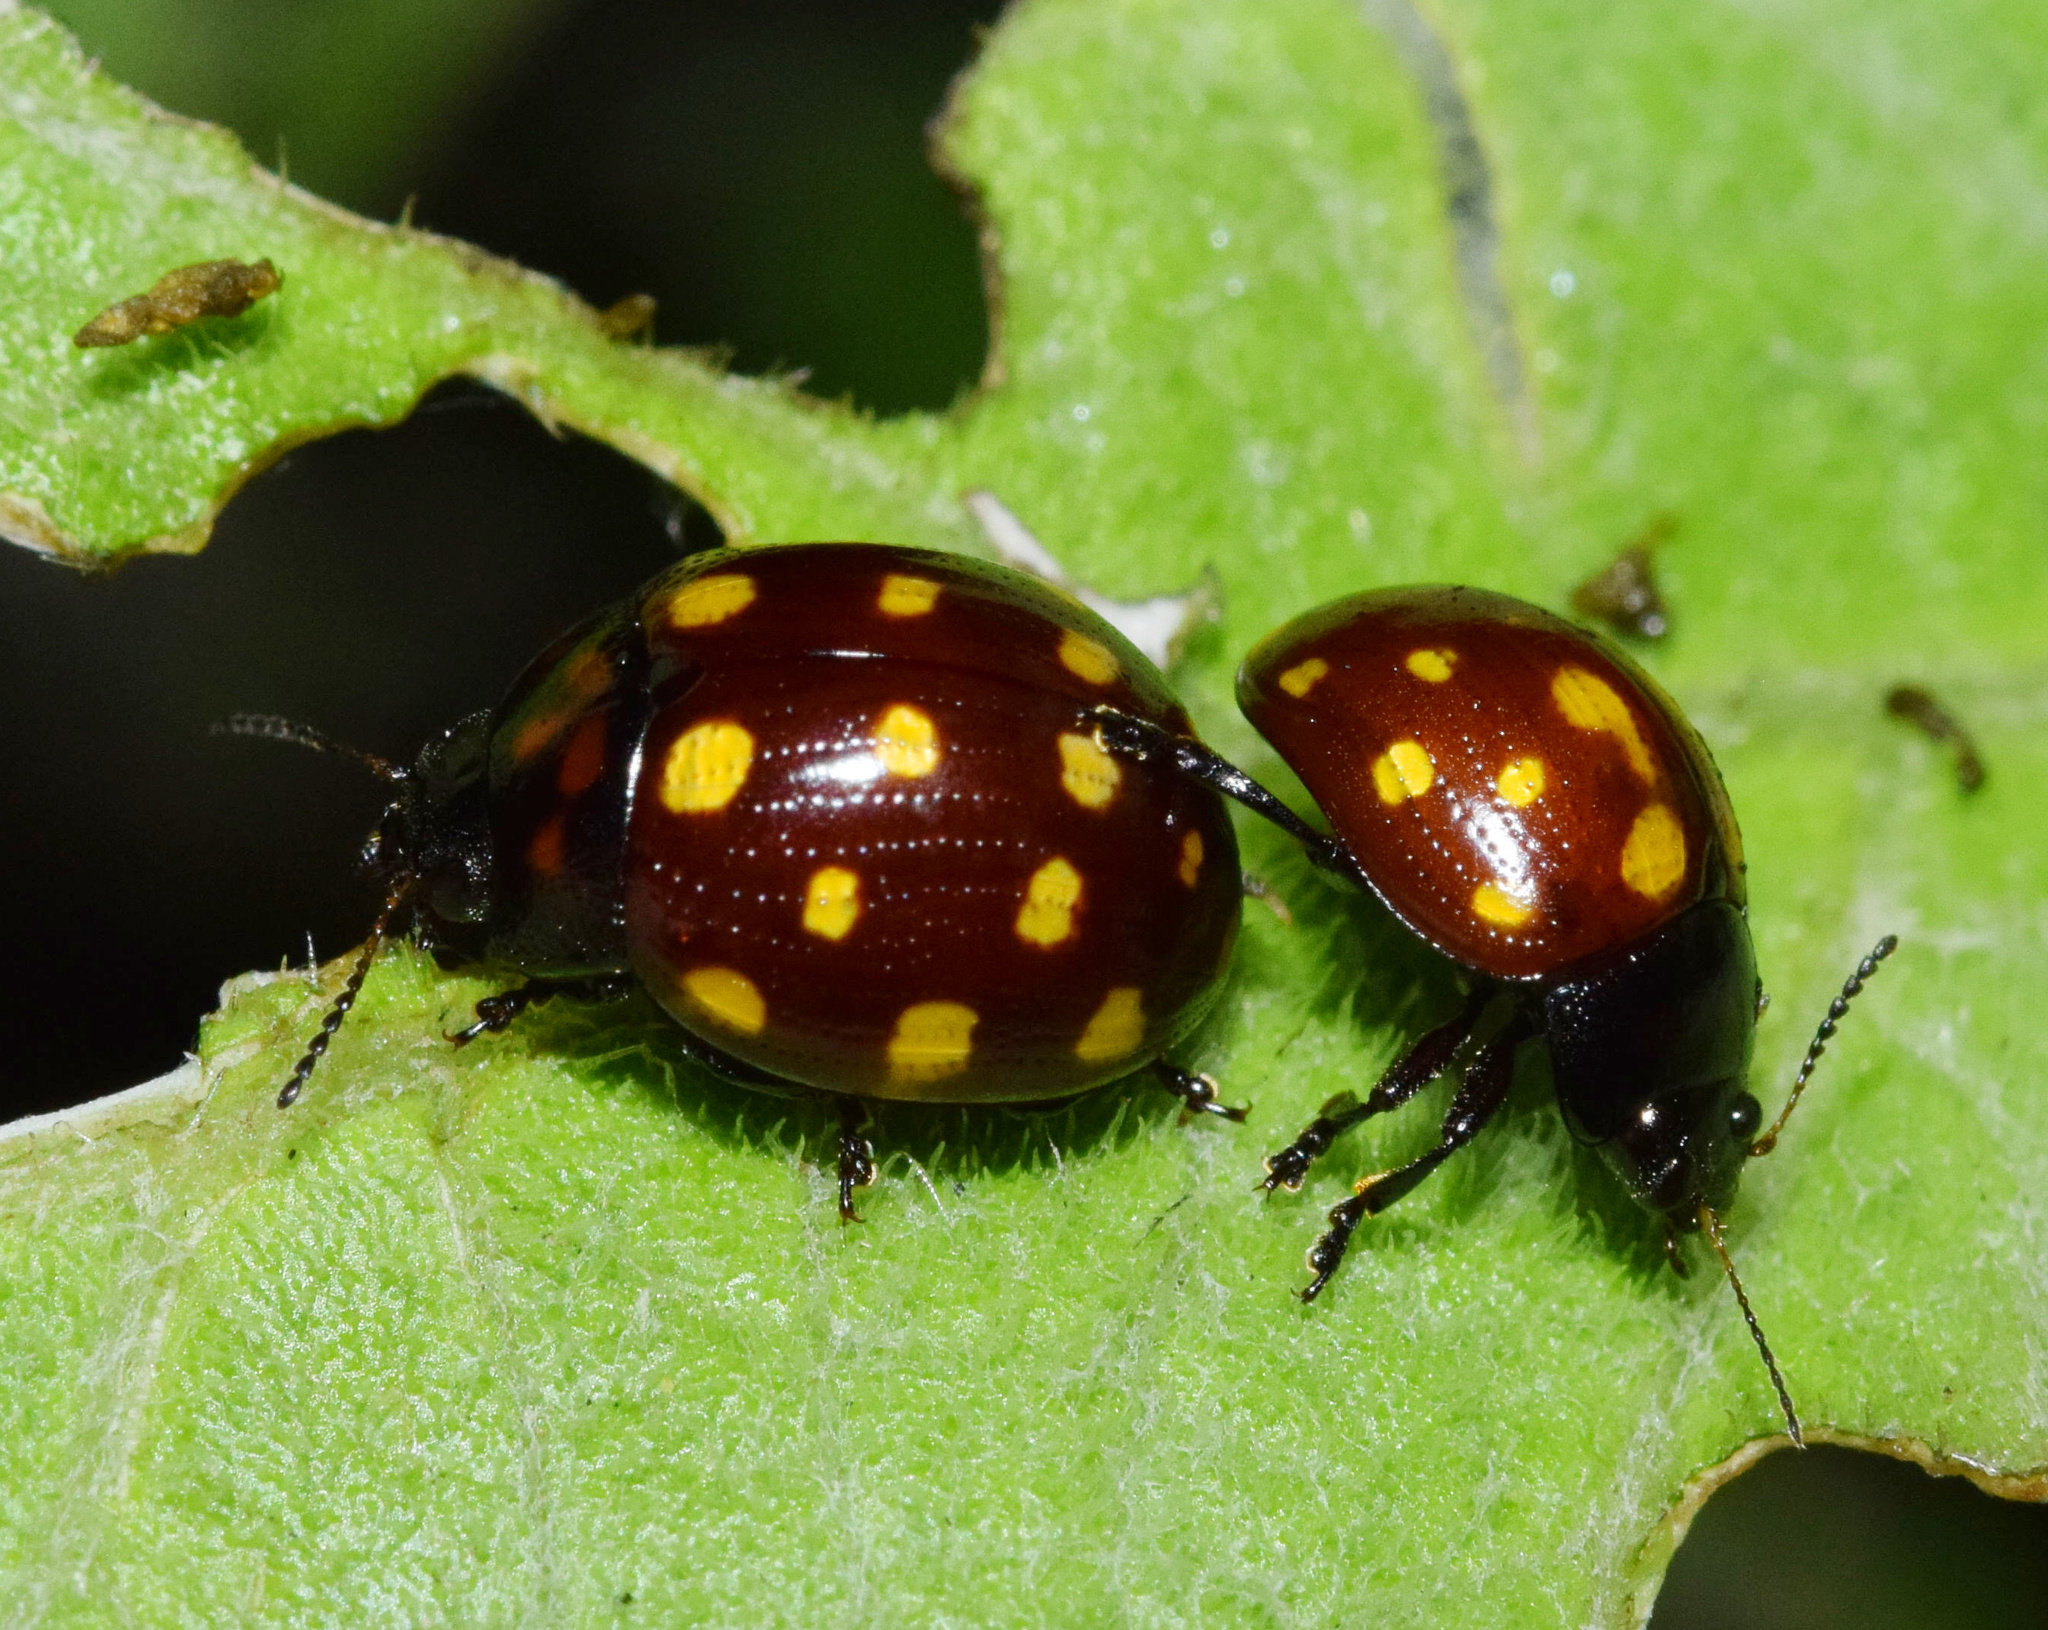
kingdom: Animalia
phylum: Arthropoda
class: Insecta
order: Coleoptera
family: Chrysomelidae
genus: Chrysolina
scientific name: Chrysolina
